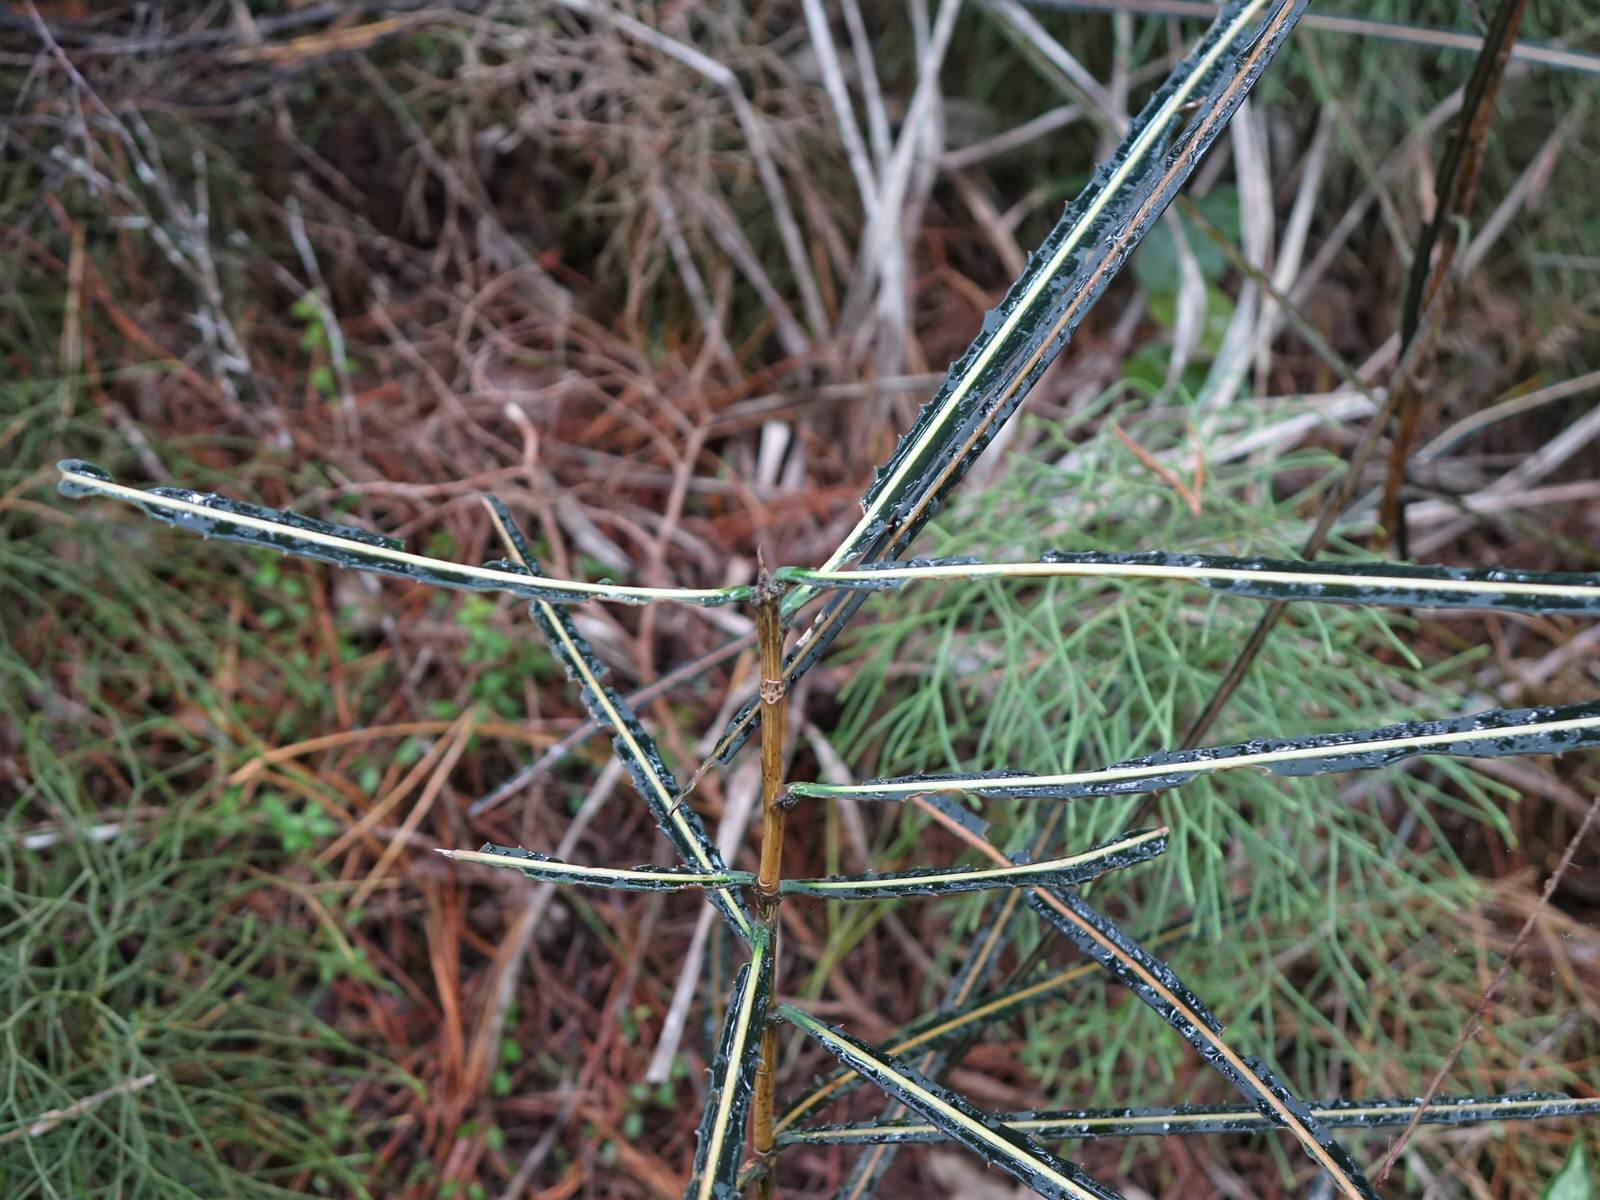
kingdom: Plantae
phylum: Tracheophyta
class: Magnoliopsida
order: Apiales
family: Araliaceae
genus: Pseudopanax
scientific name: Pseudopanax crassifolius
